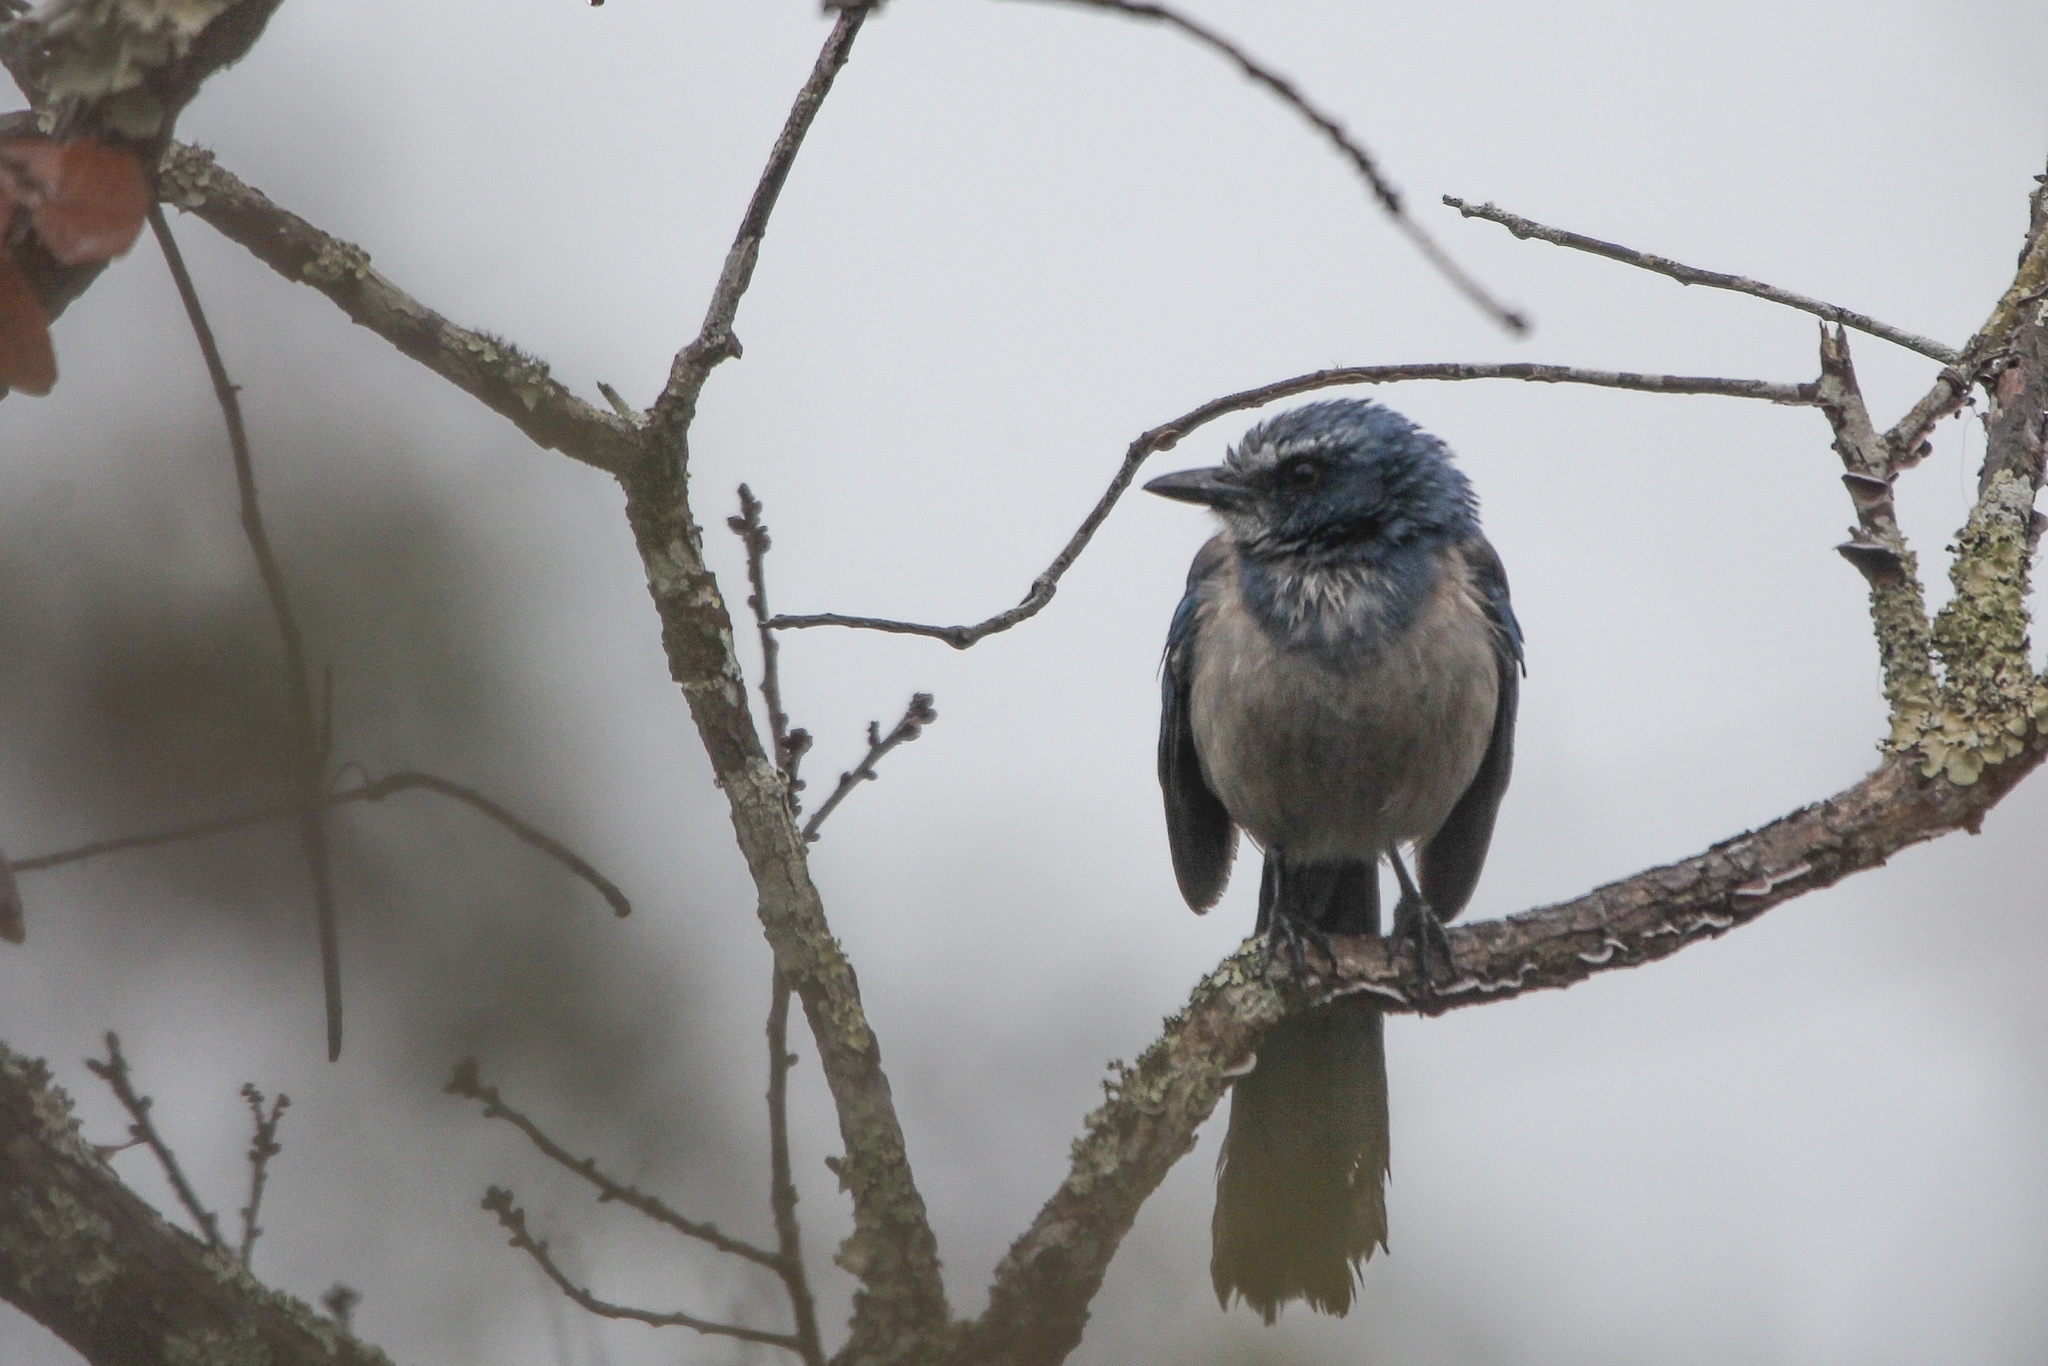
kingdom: Animalia
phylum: Chordata
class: Aves
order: Passeriformes
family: Corvidae
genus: Aphelocoma
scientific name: Aphelocoma coerulescens
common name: Florida scrub jay
